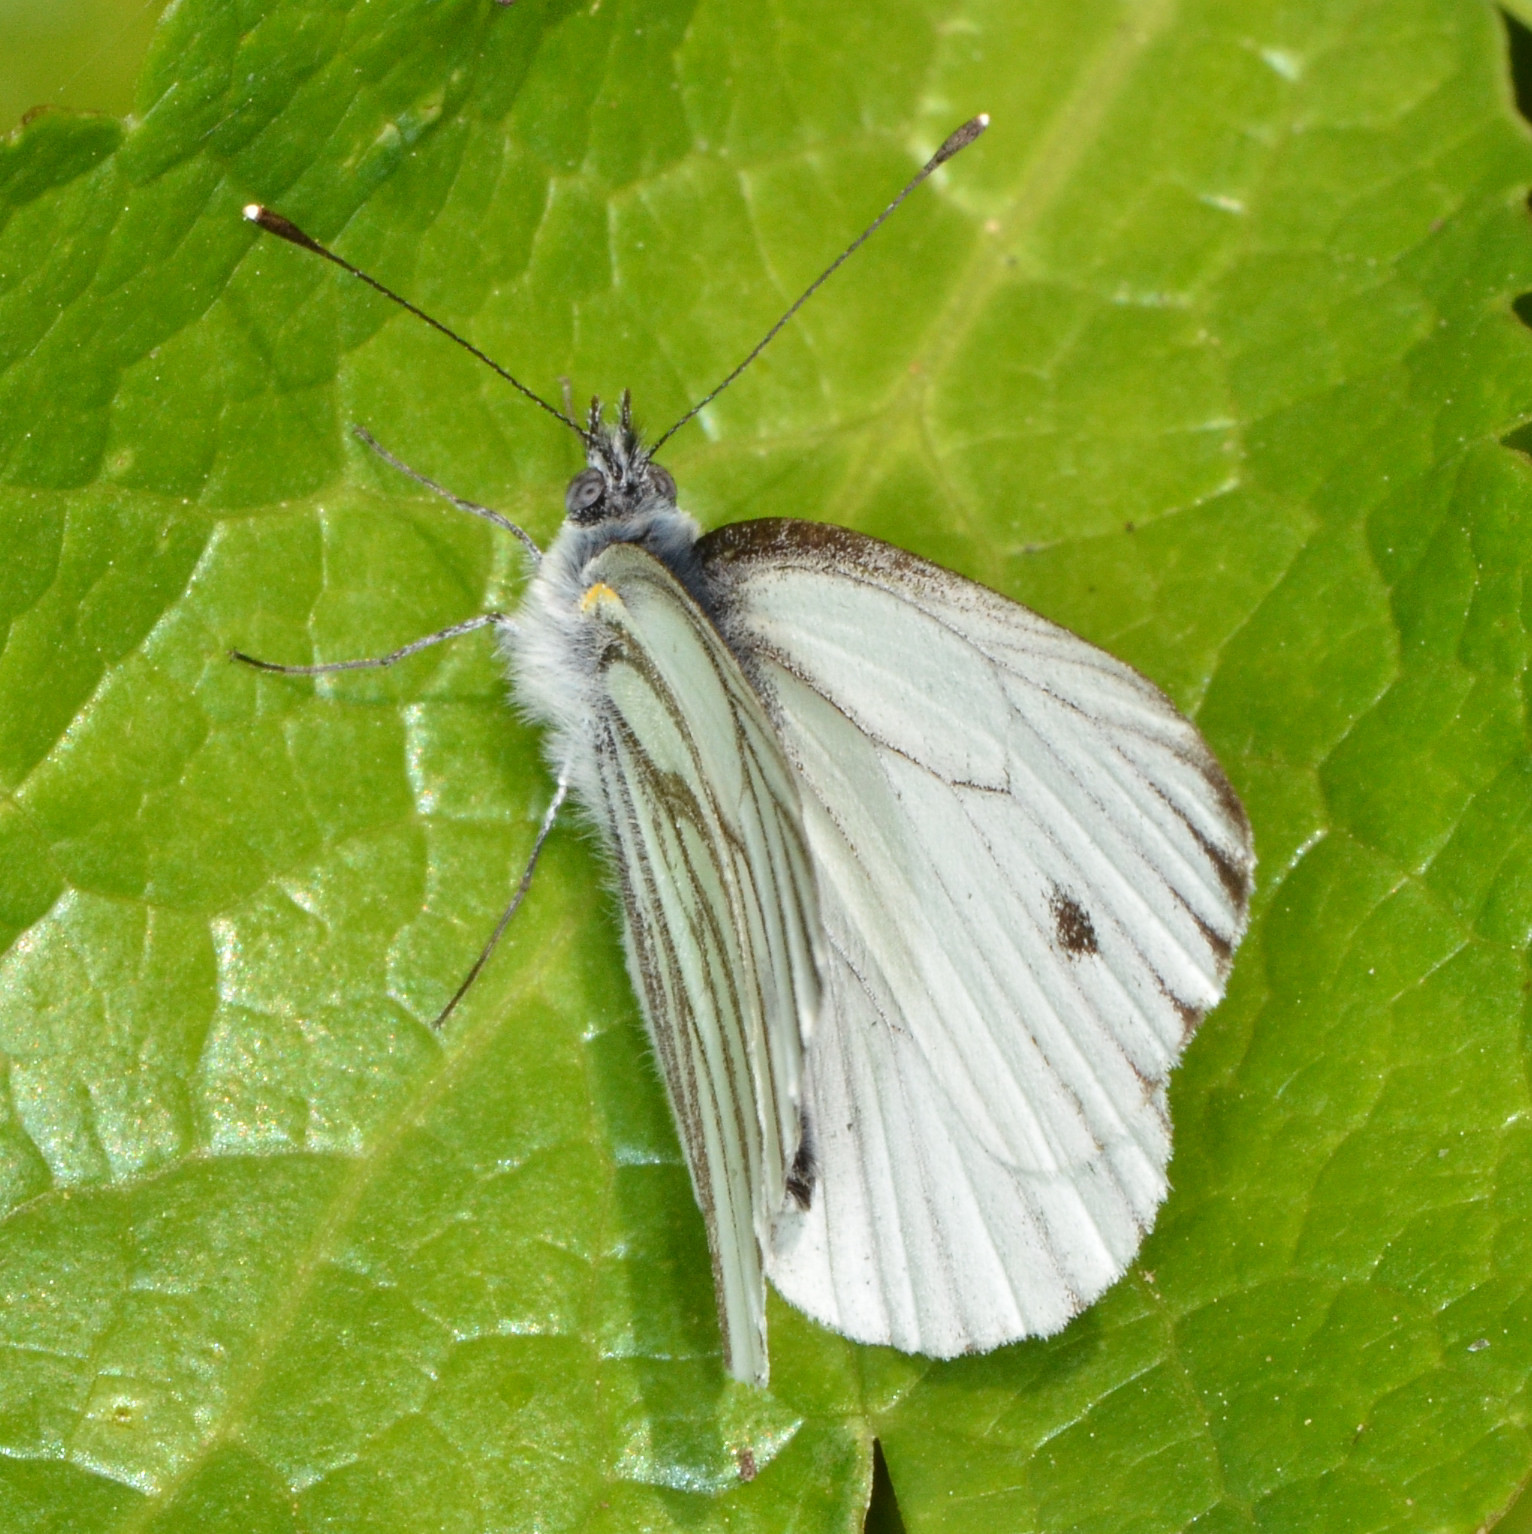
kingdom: Animalia
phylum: Arthropoda
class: Insecta
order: Lepidoptera
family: Pieridae
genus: Pieris
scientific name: Pieris marginalis
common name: Margined white
